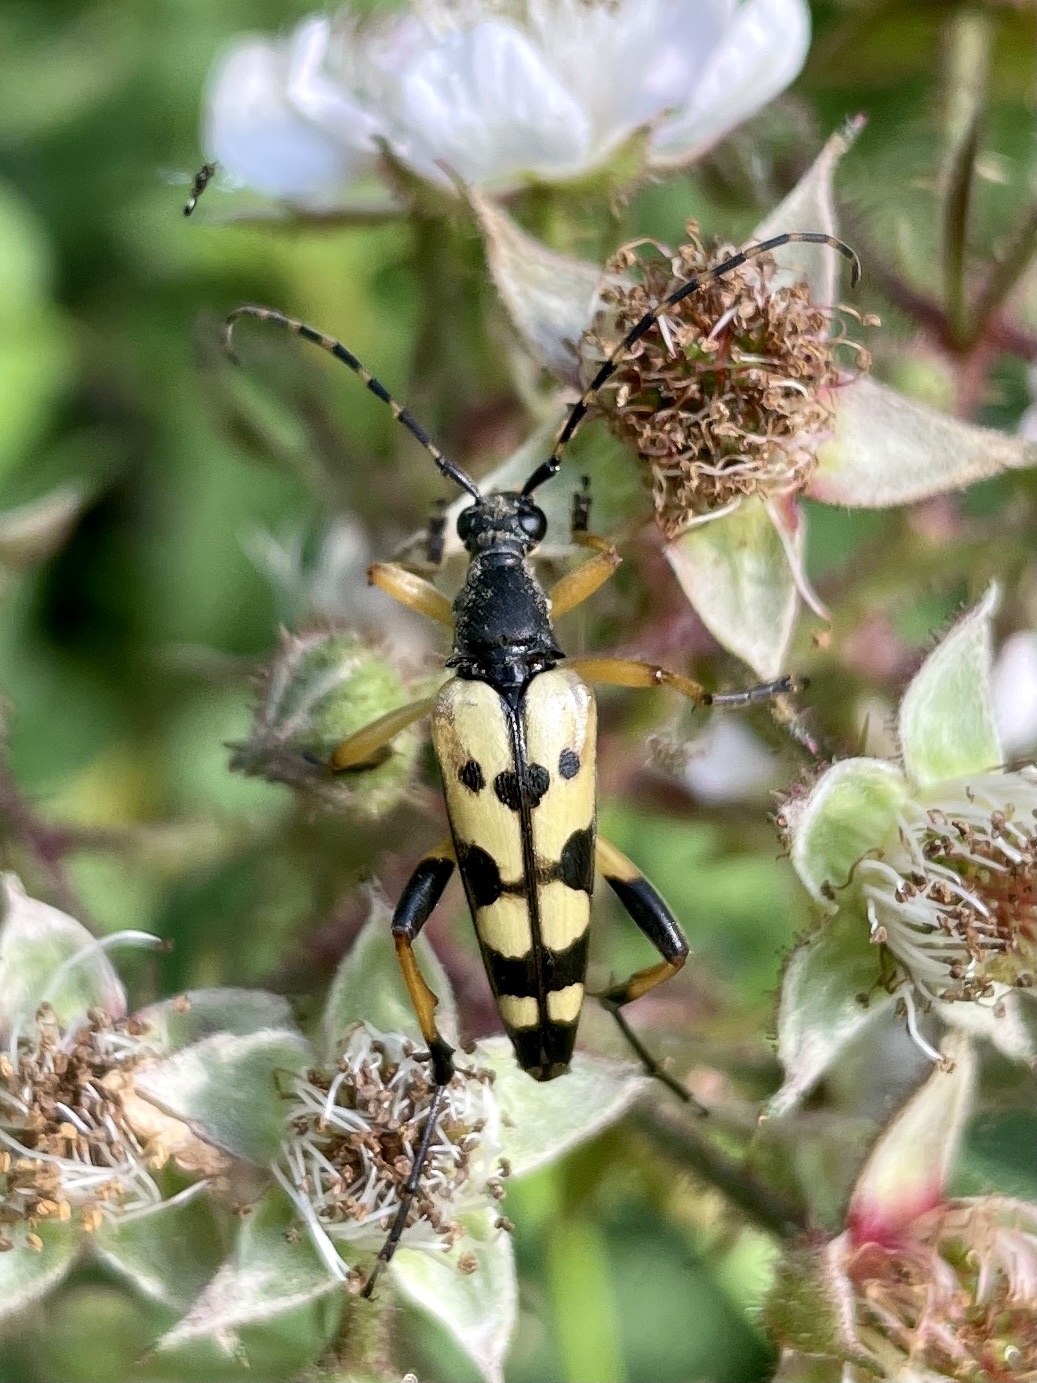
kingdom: Animalia
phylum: Arthropoda
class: Insecta
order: Coleoptera
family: Cerambycidae
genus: Rutpela
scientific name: Rutpela maculata
